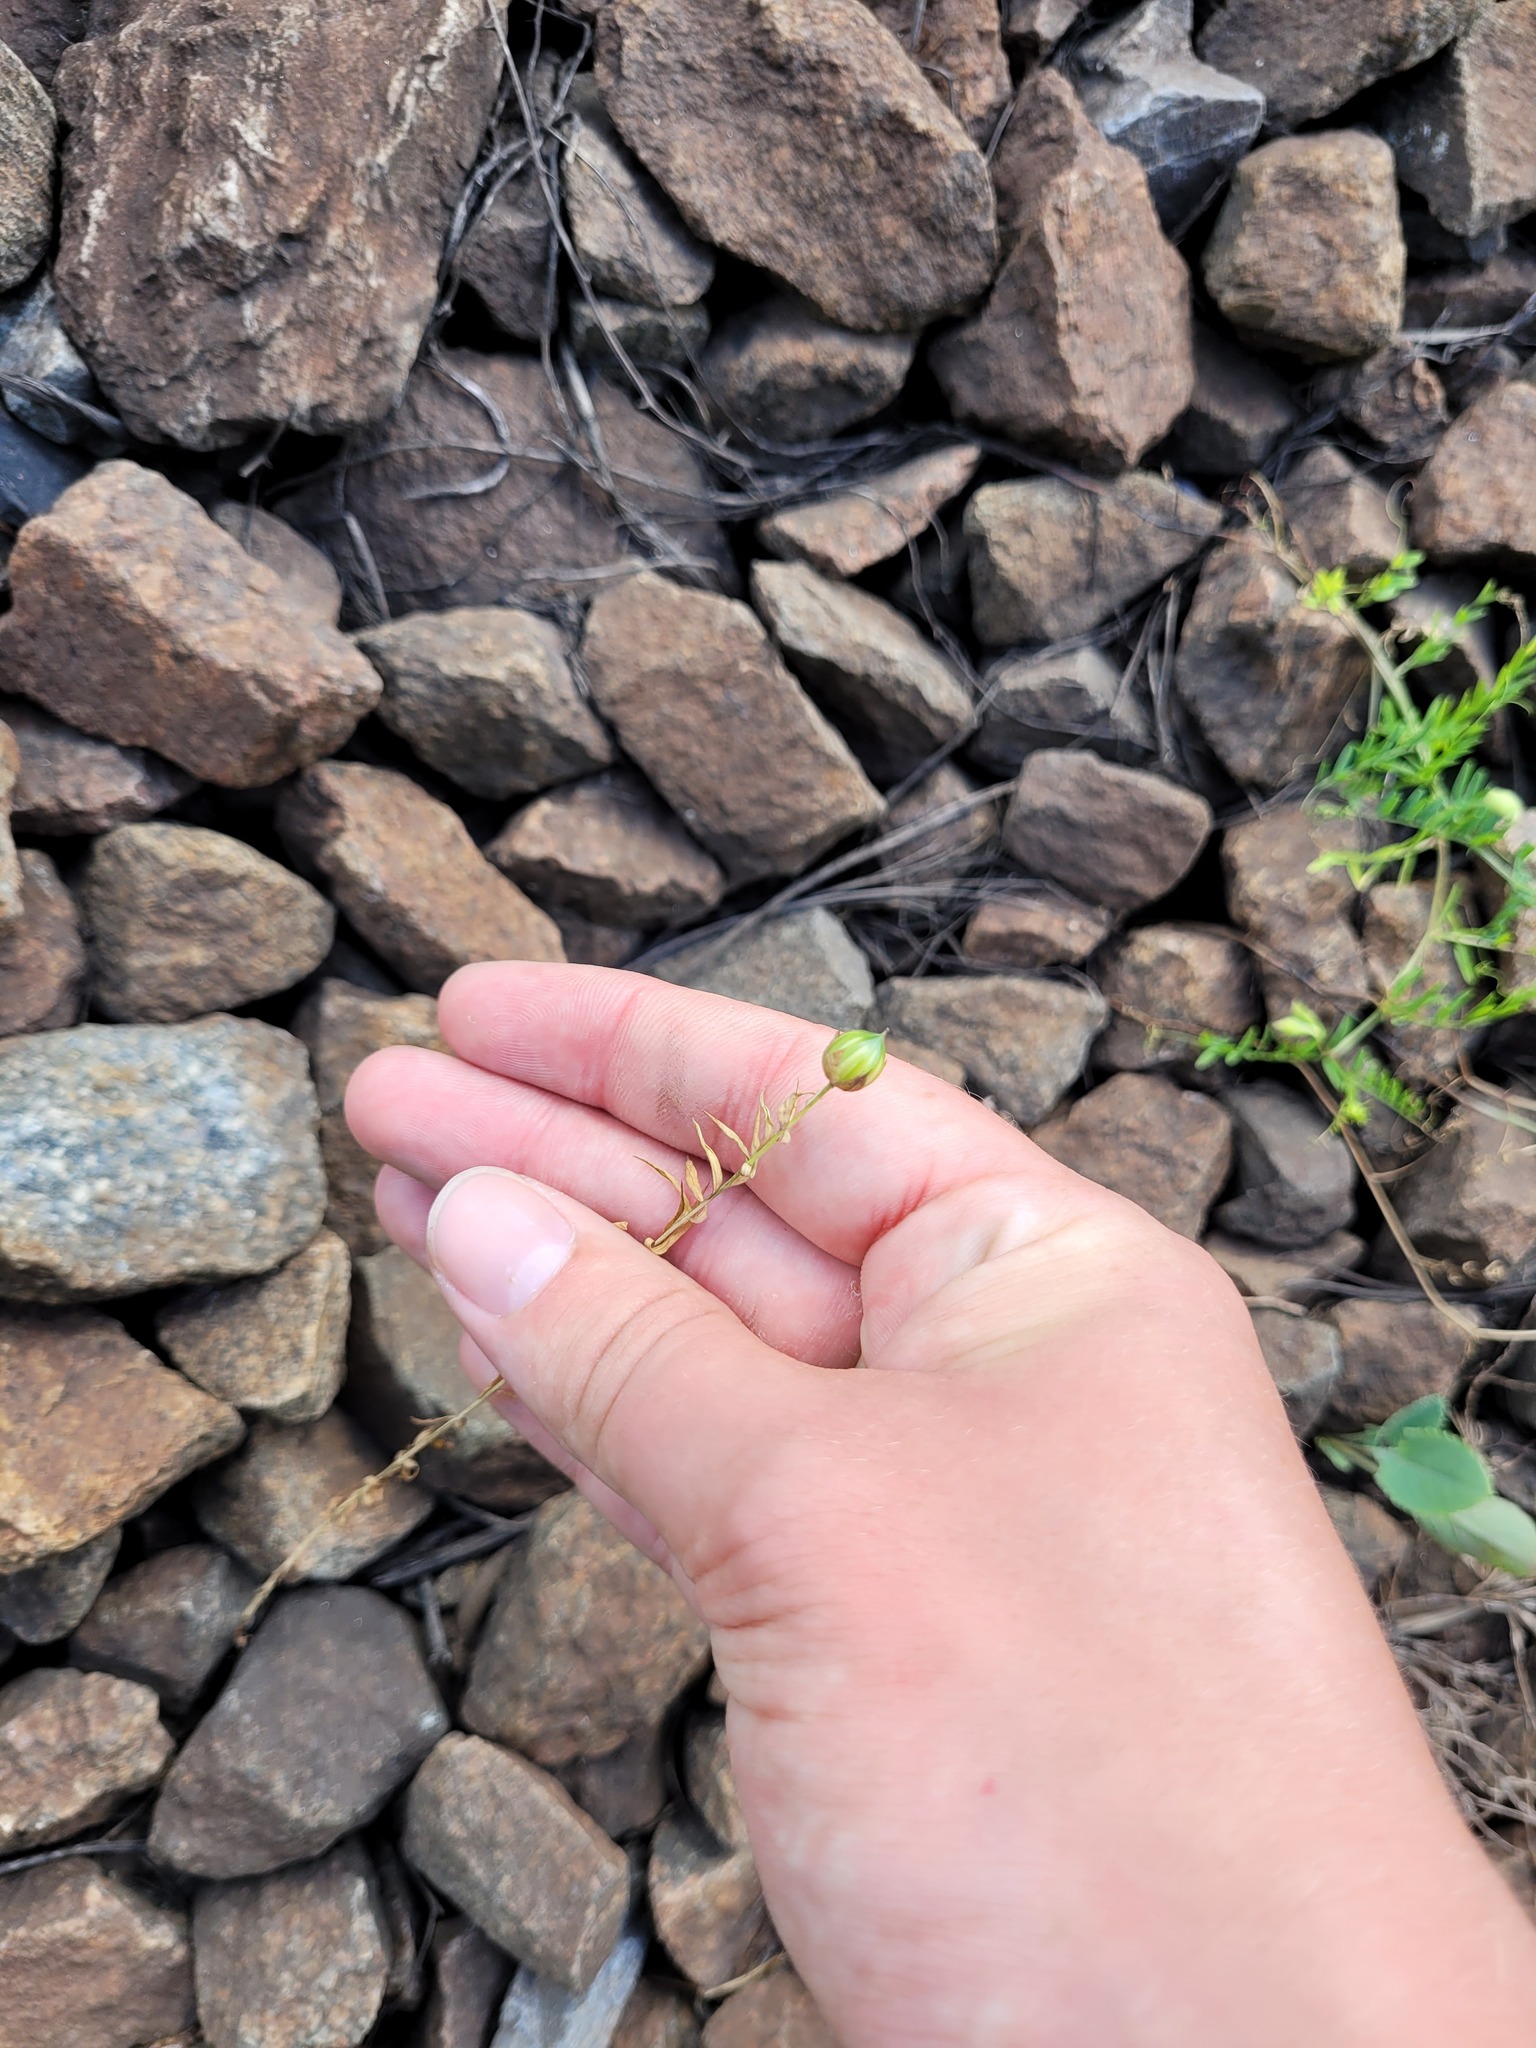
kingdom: Plantae
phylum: Tracheophyta
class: Magnoliopsida
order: Malpighiales
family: Linaceae
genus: Linum
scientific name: Linum usitatissimum
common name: Flax
